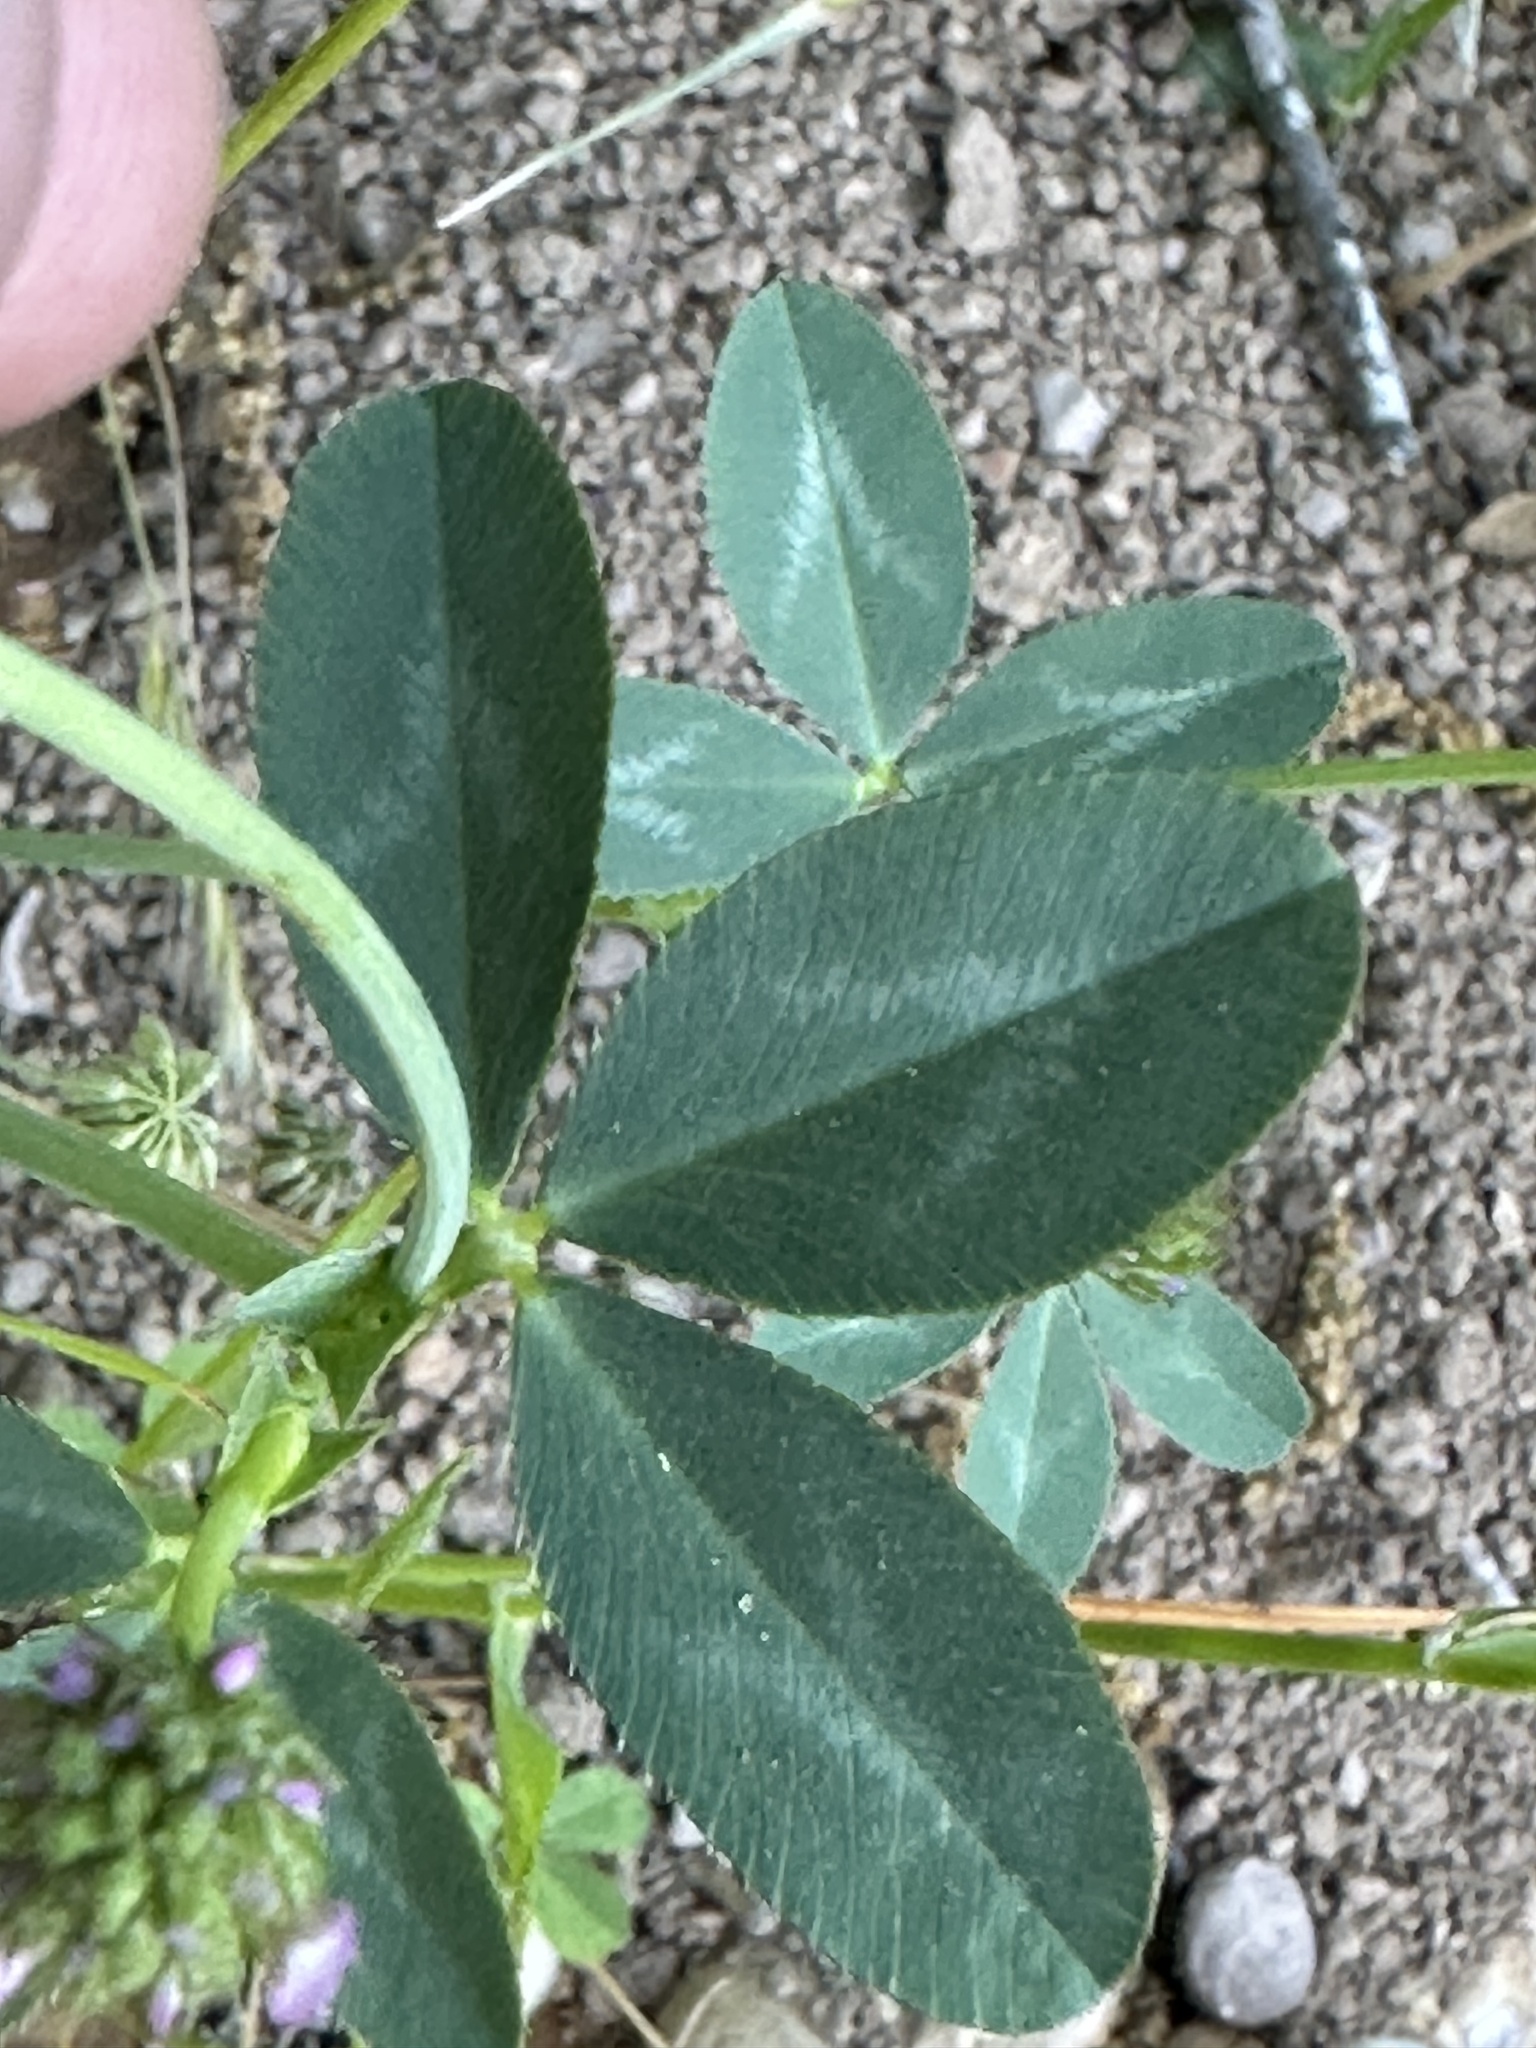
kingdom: Plantae
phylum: Tracheophyta
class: Magnoliopsida
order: Fabales
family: Fabaceae
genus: Trifolium
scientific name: Trifolium ciliolatum
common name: Foothill clover
